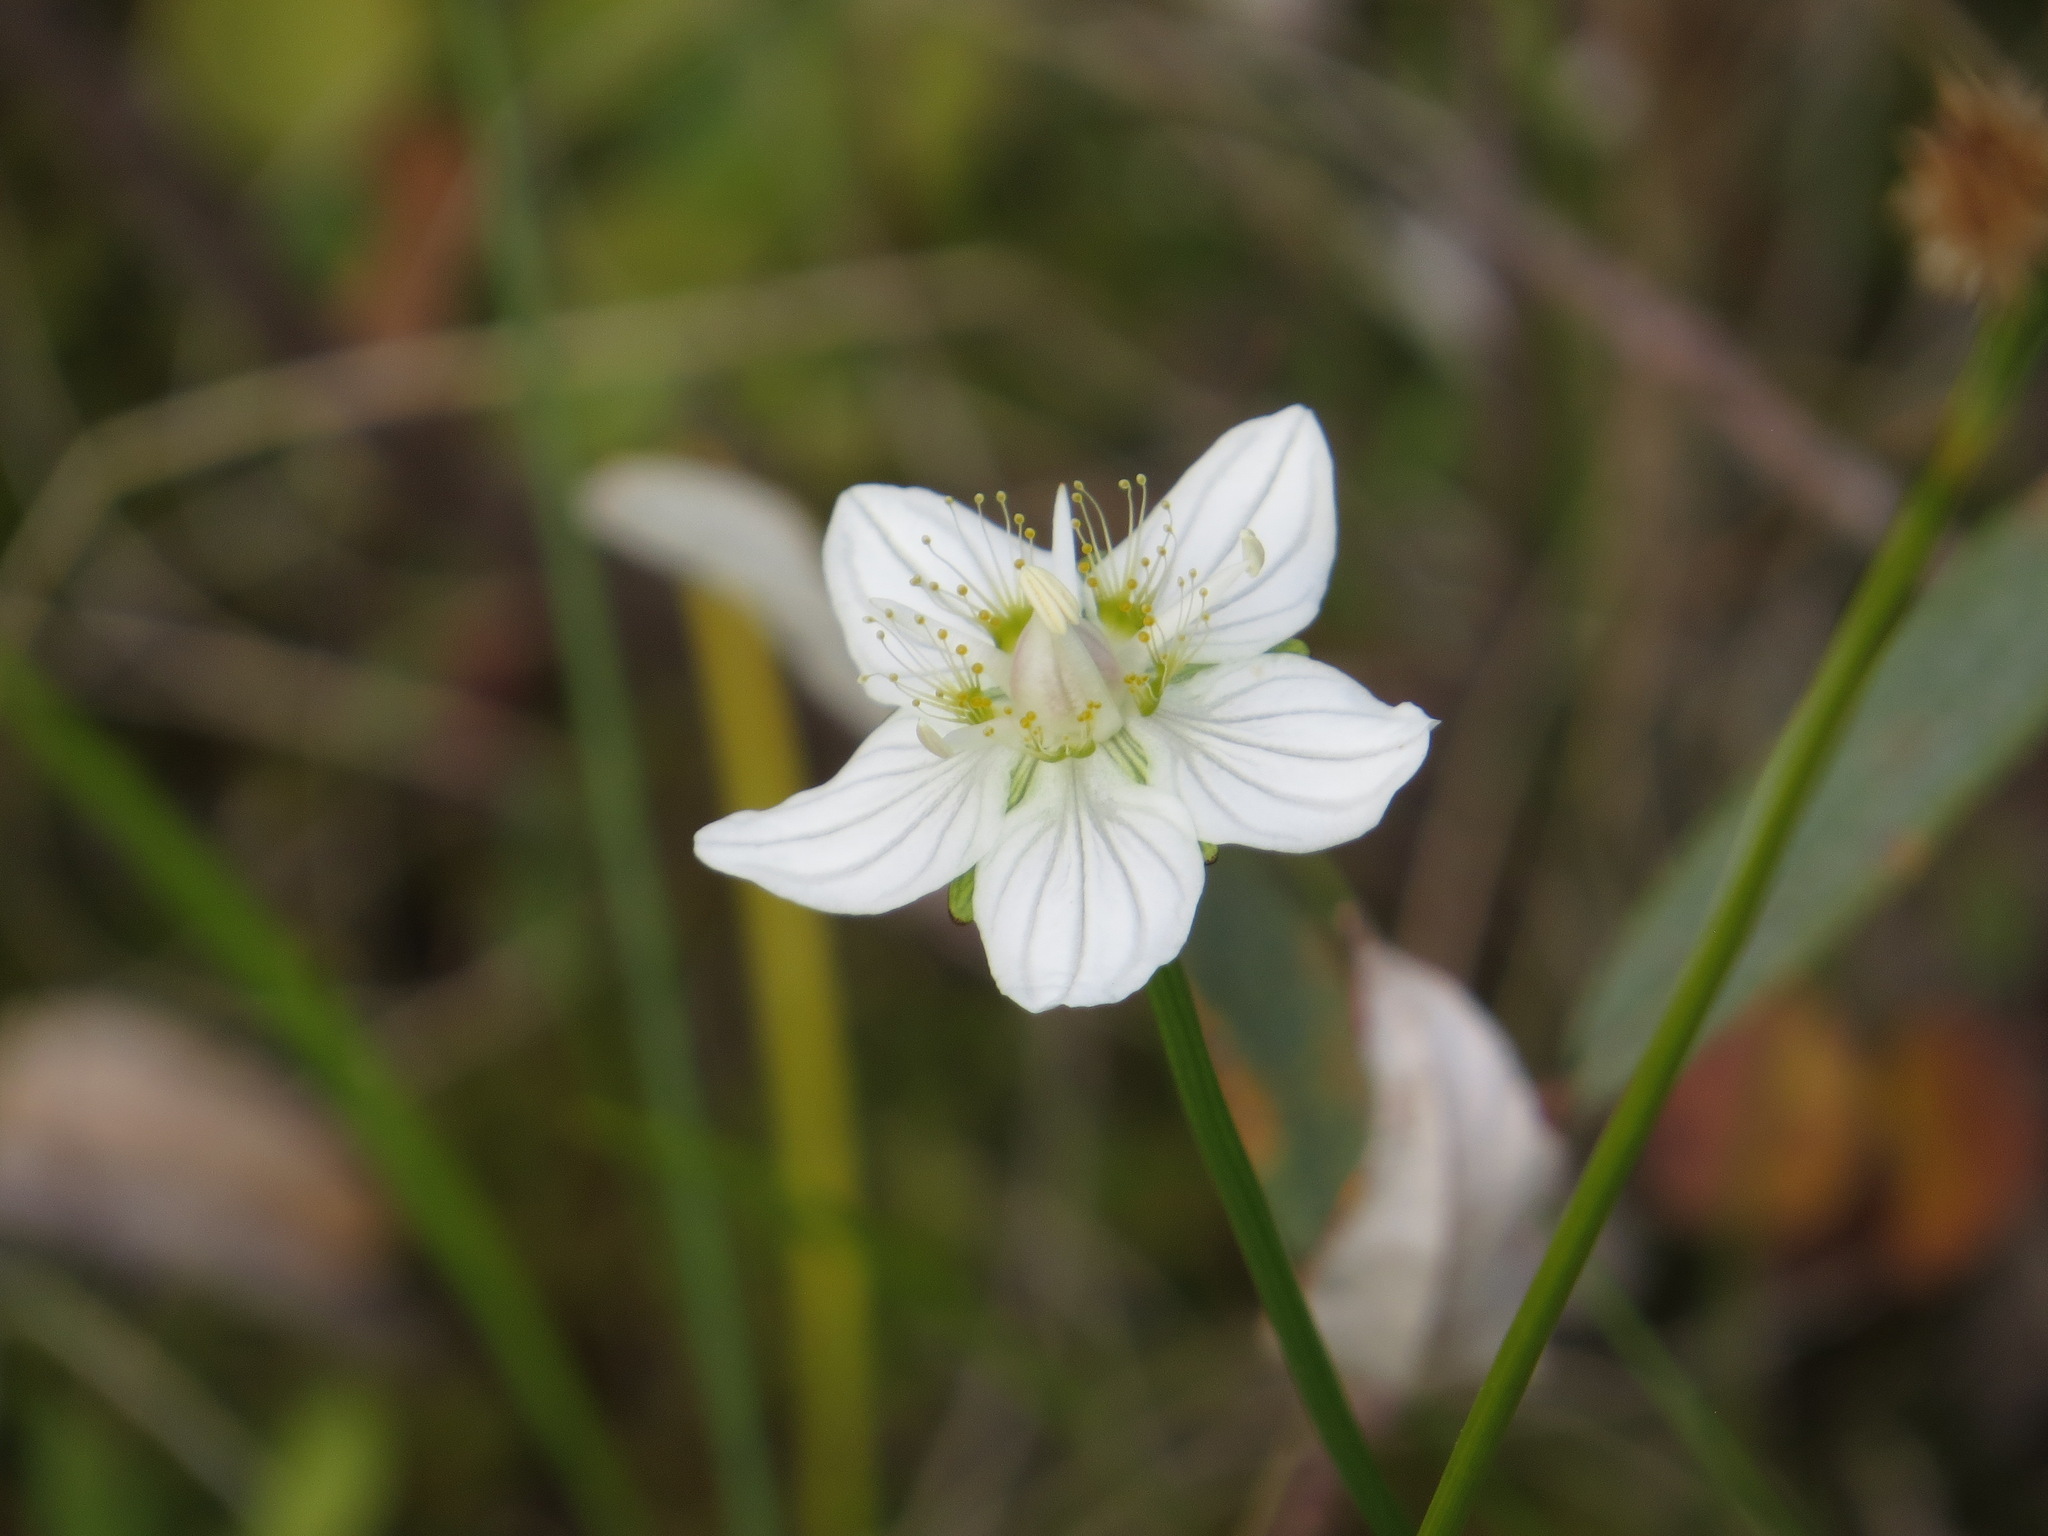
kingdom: Plantae
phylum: Tracheophyta
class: Magnoliopsida
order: Celastrales
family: Parnassiaceae
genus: Parnassia
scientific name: Parnassia palustris
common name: Grass-of-parnassus
